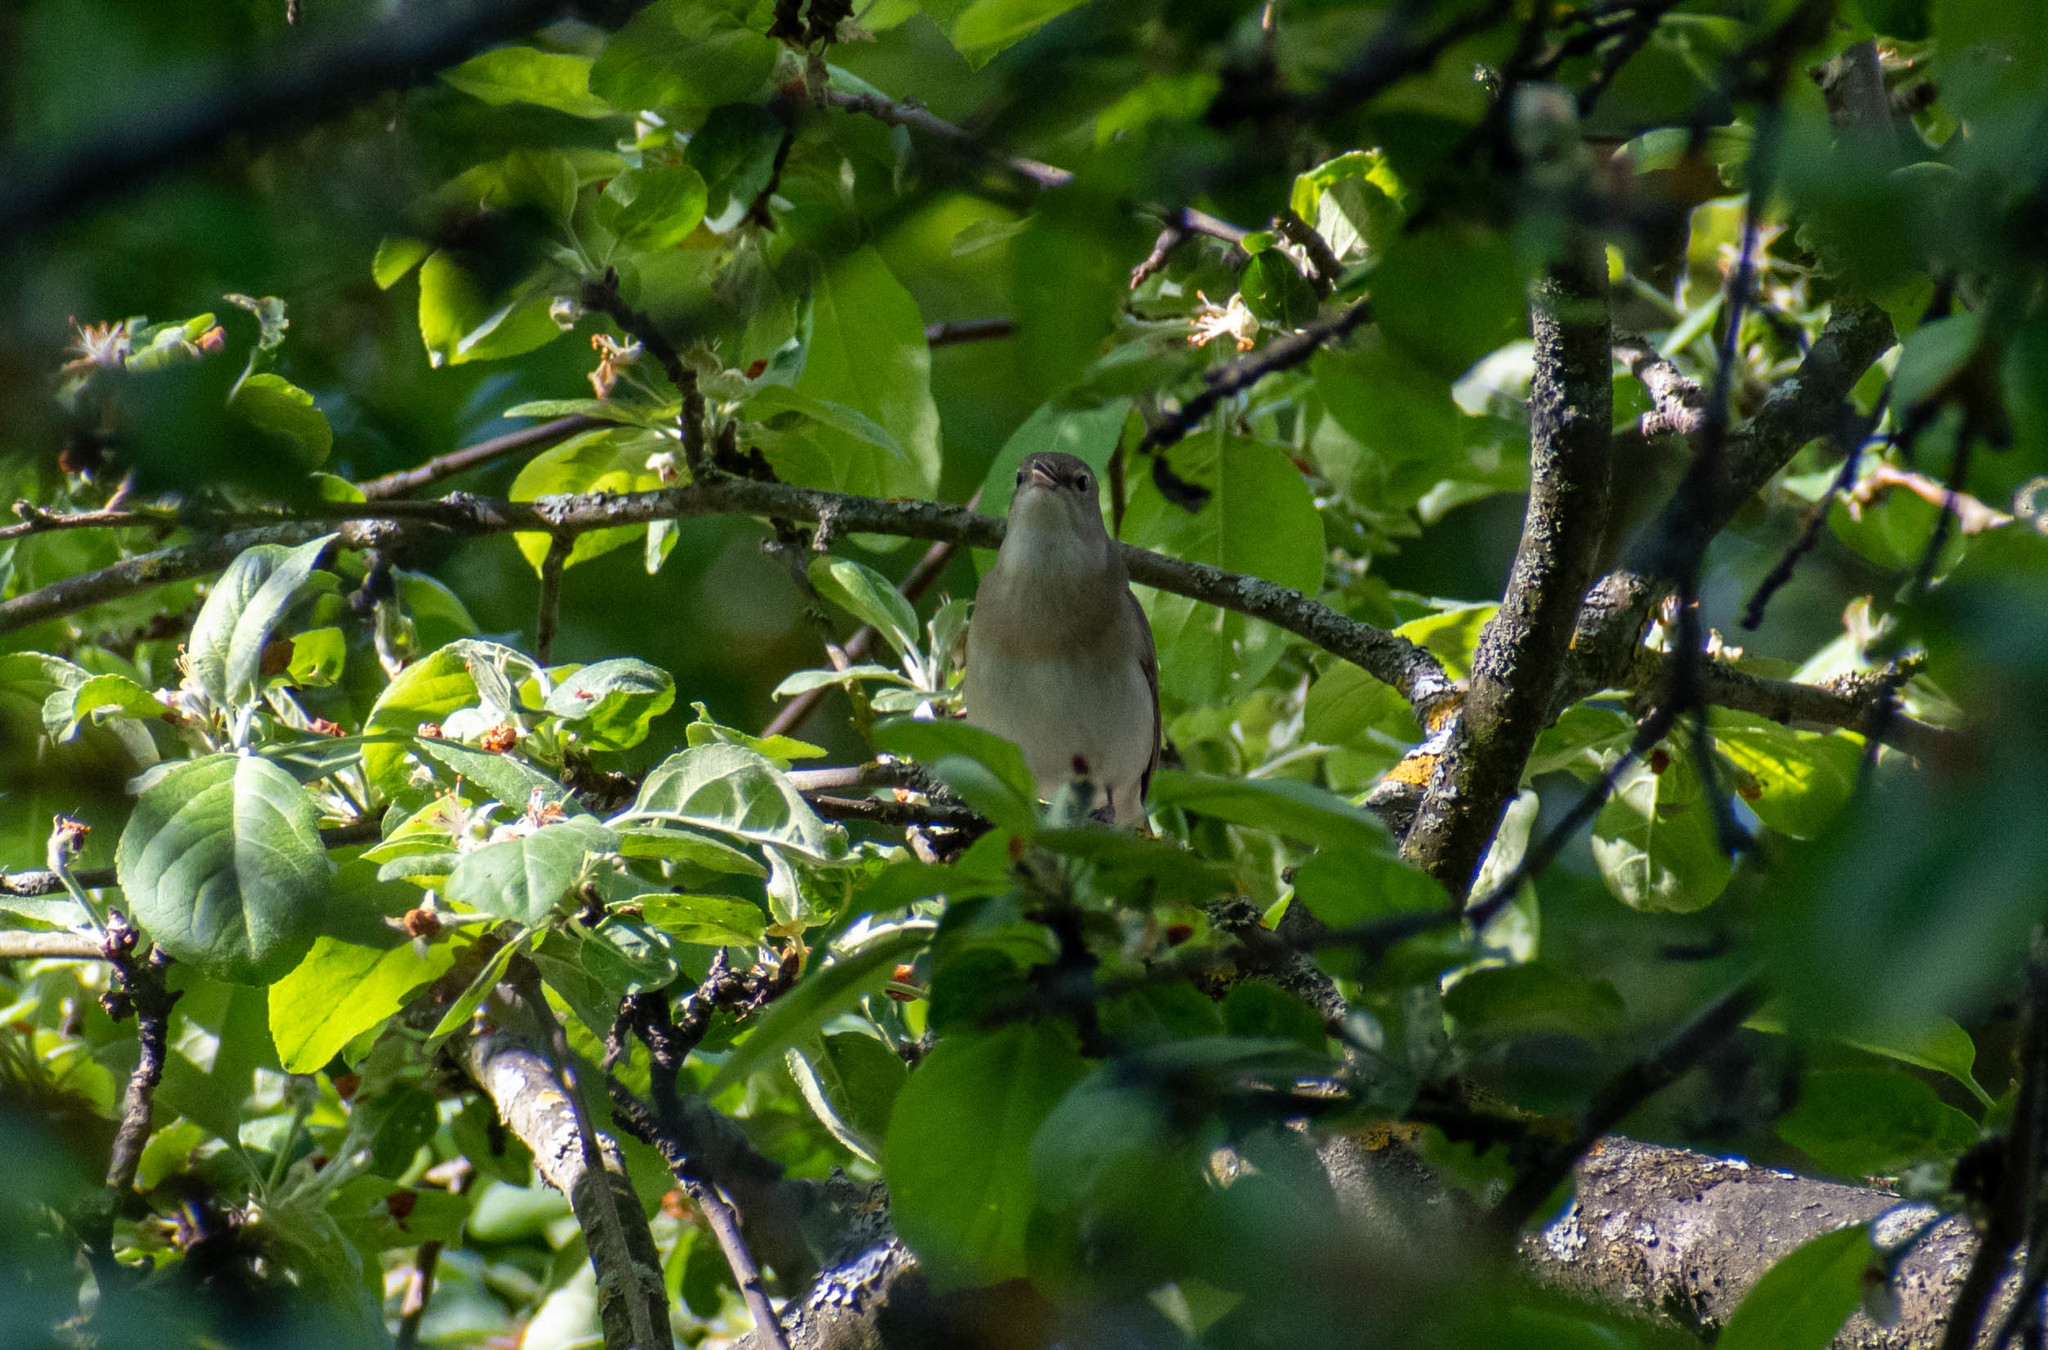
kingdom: Animalia
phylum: Chordata
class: Aves
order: Passeriformes
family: Sylviidae
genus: Sylvia
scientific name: Sylvia borin
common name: Garden warbler
